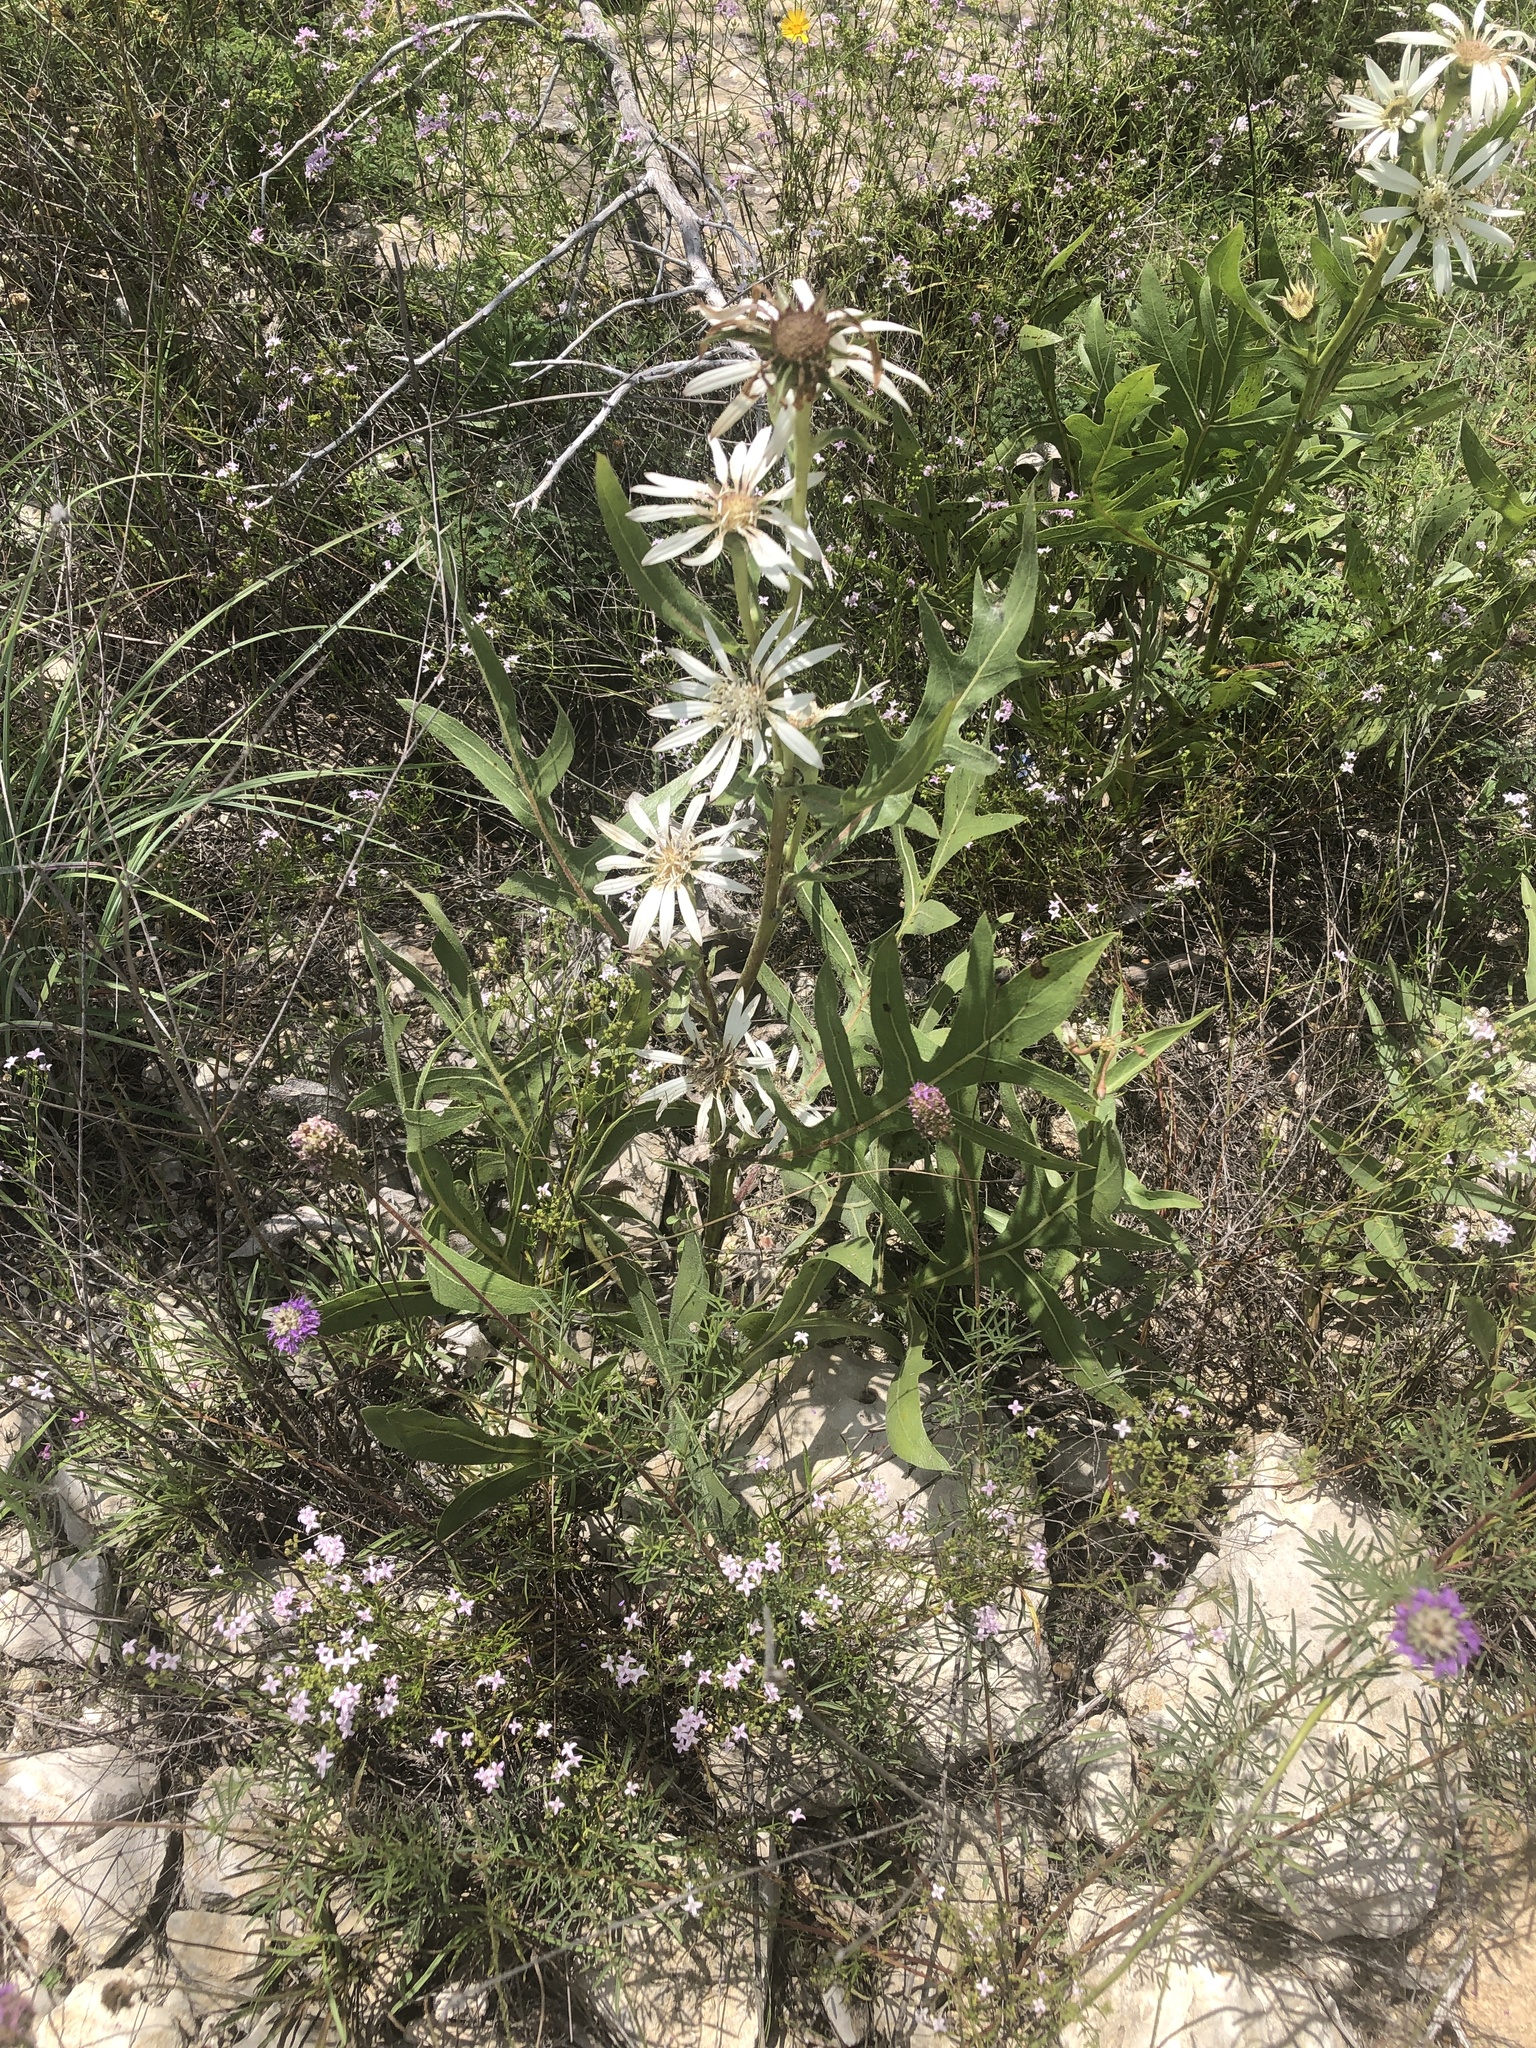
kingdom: Plantae
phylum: Tracheophyta
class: Magnoliopsida
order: Asterales
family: Asteraceae
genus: Silphium
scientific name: Silphium albiflorum
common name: White rosinweed
